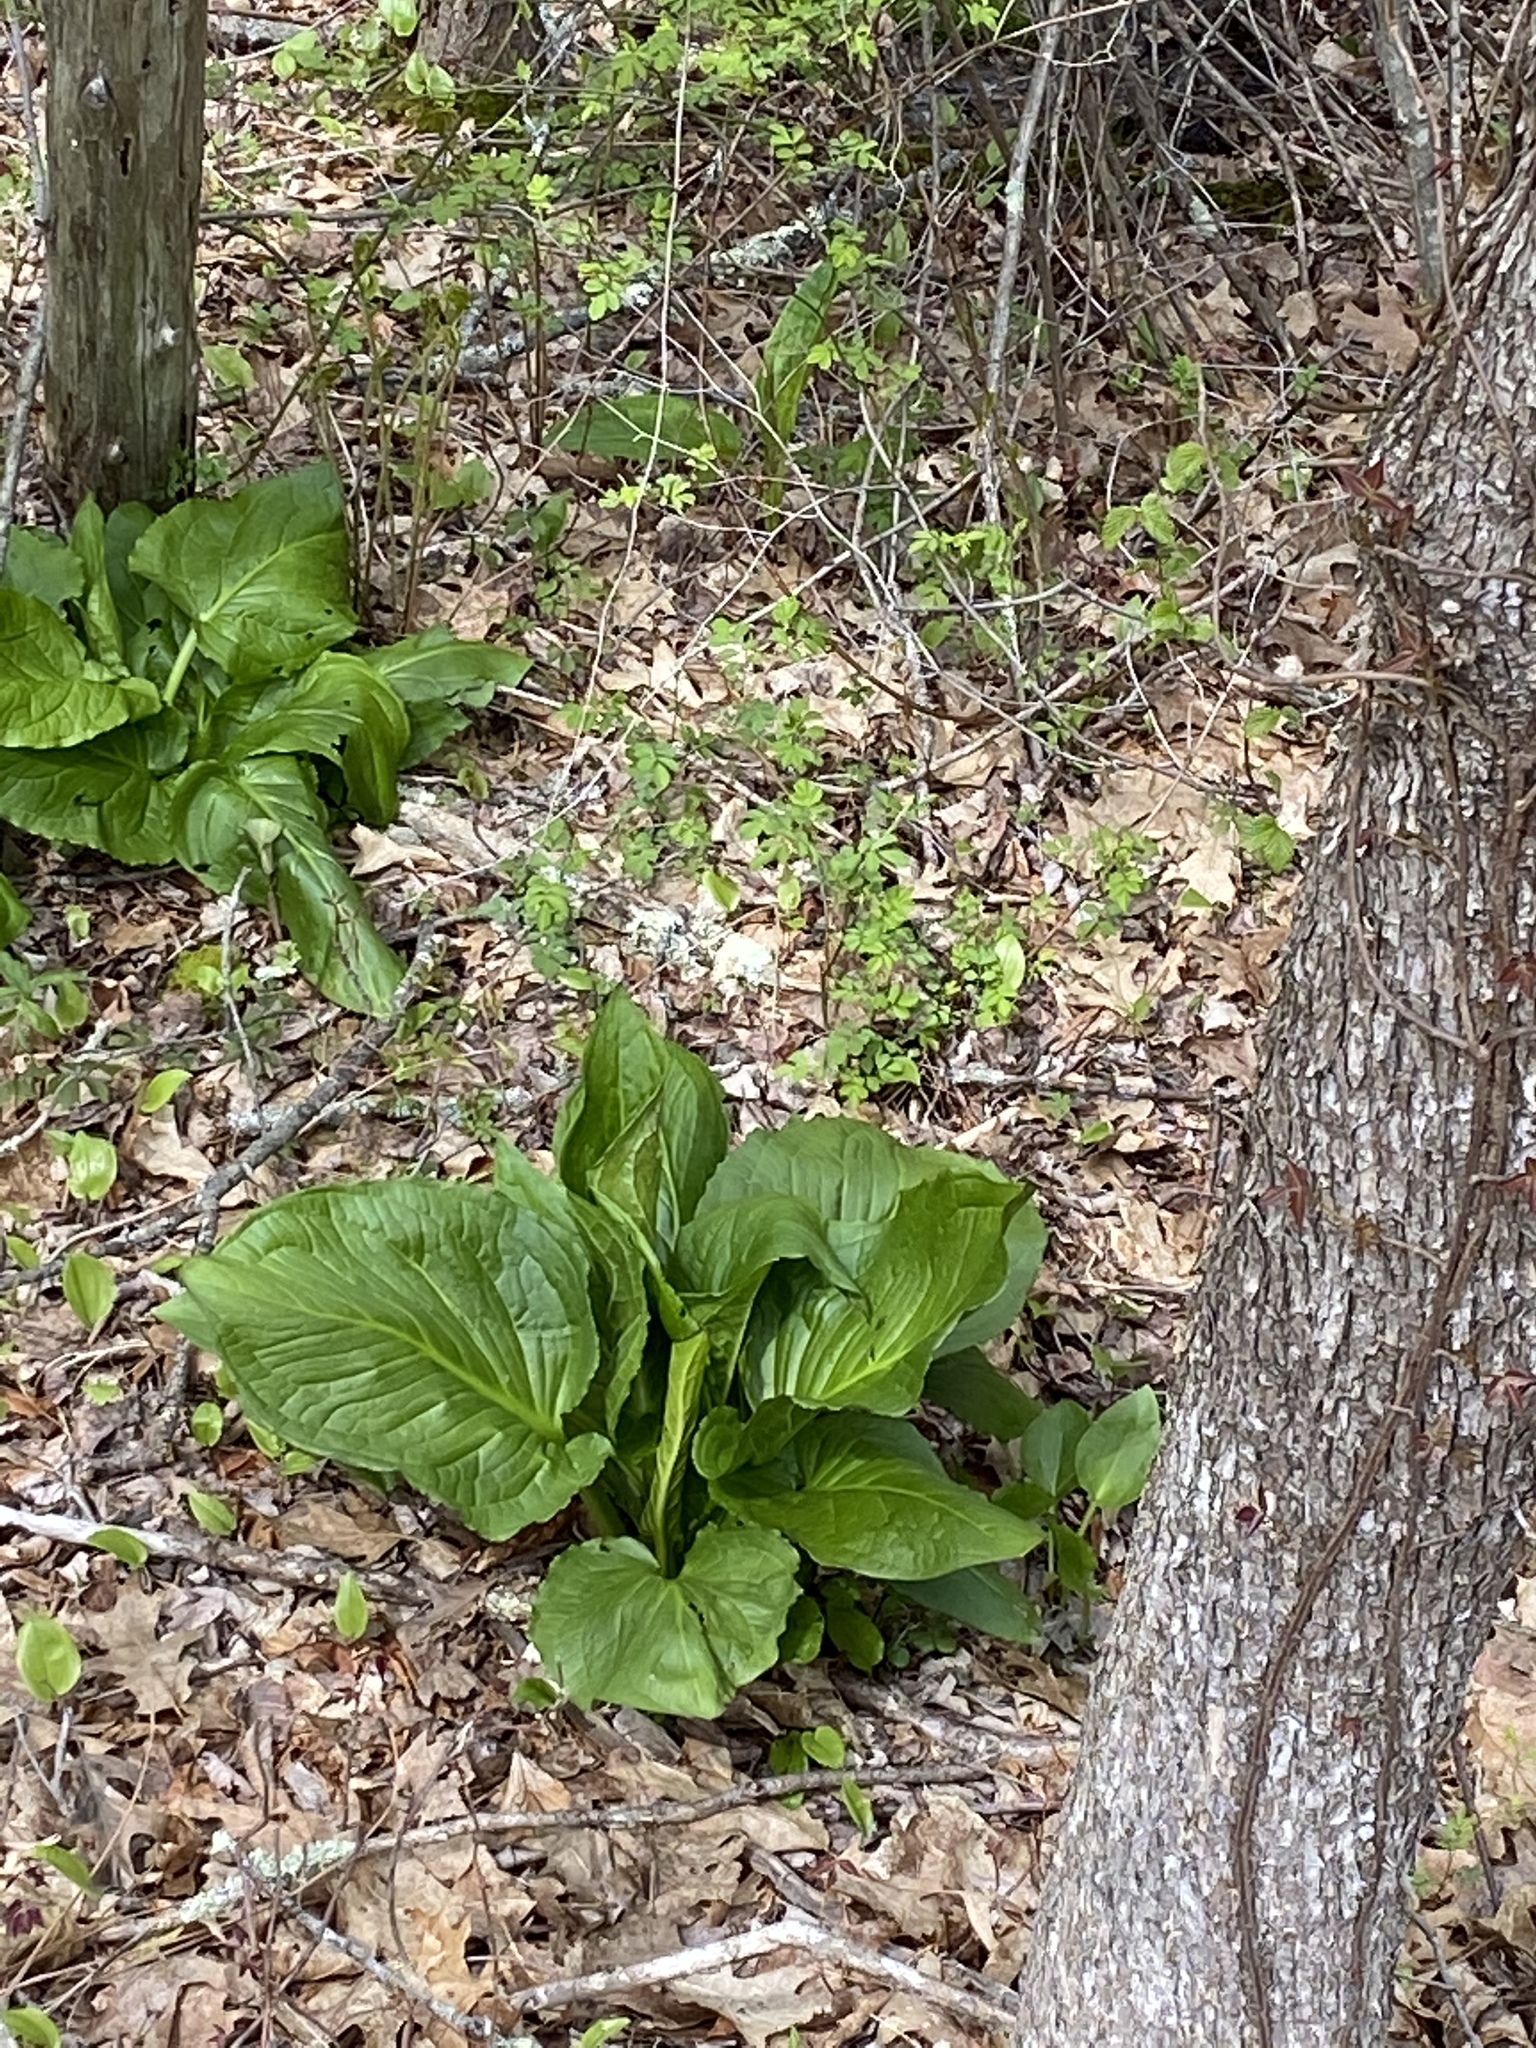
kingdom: Plantae
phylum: Tracheophyta
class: Liliopsida
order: Alismatales
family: Araceae
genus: Symplocarpus
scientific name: Symplocarpus foetidus
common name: Eastern skunk cabbage
